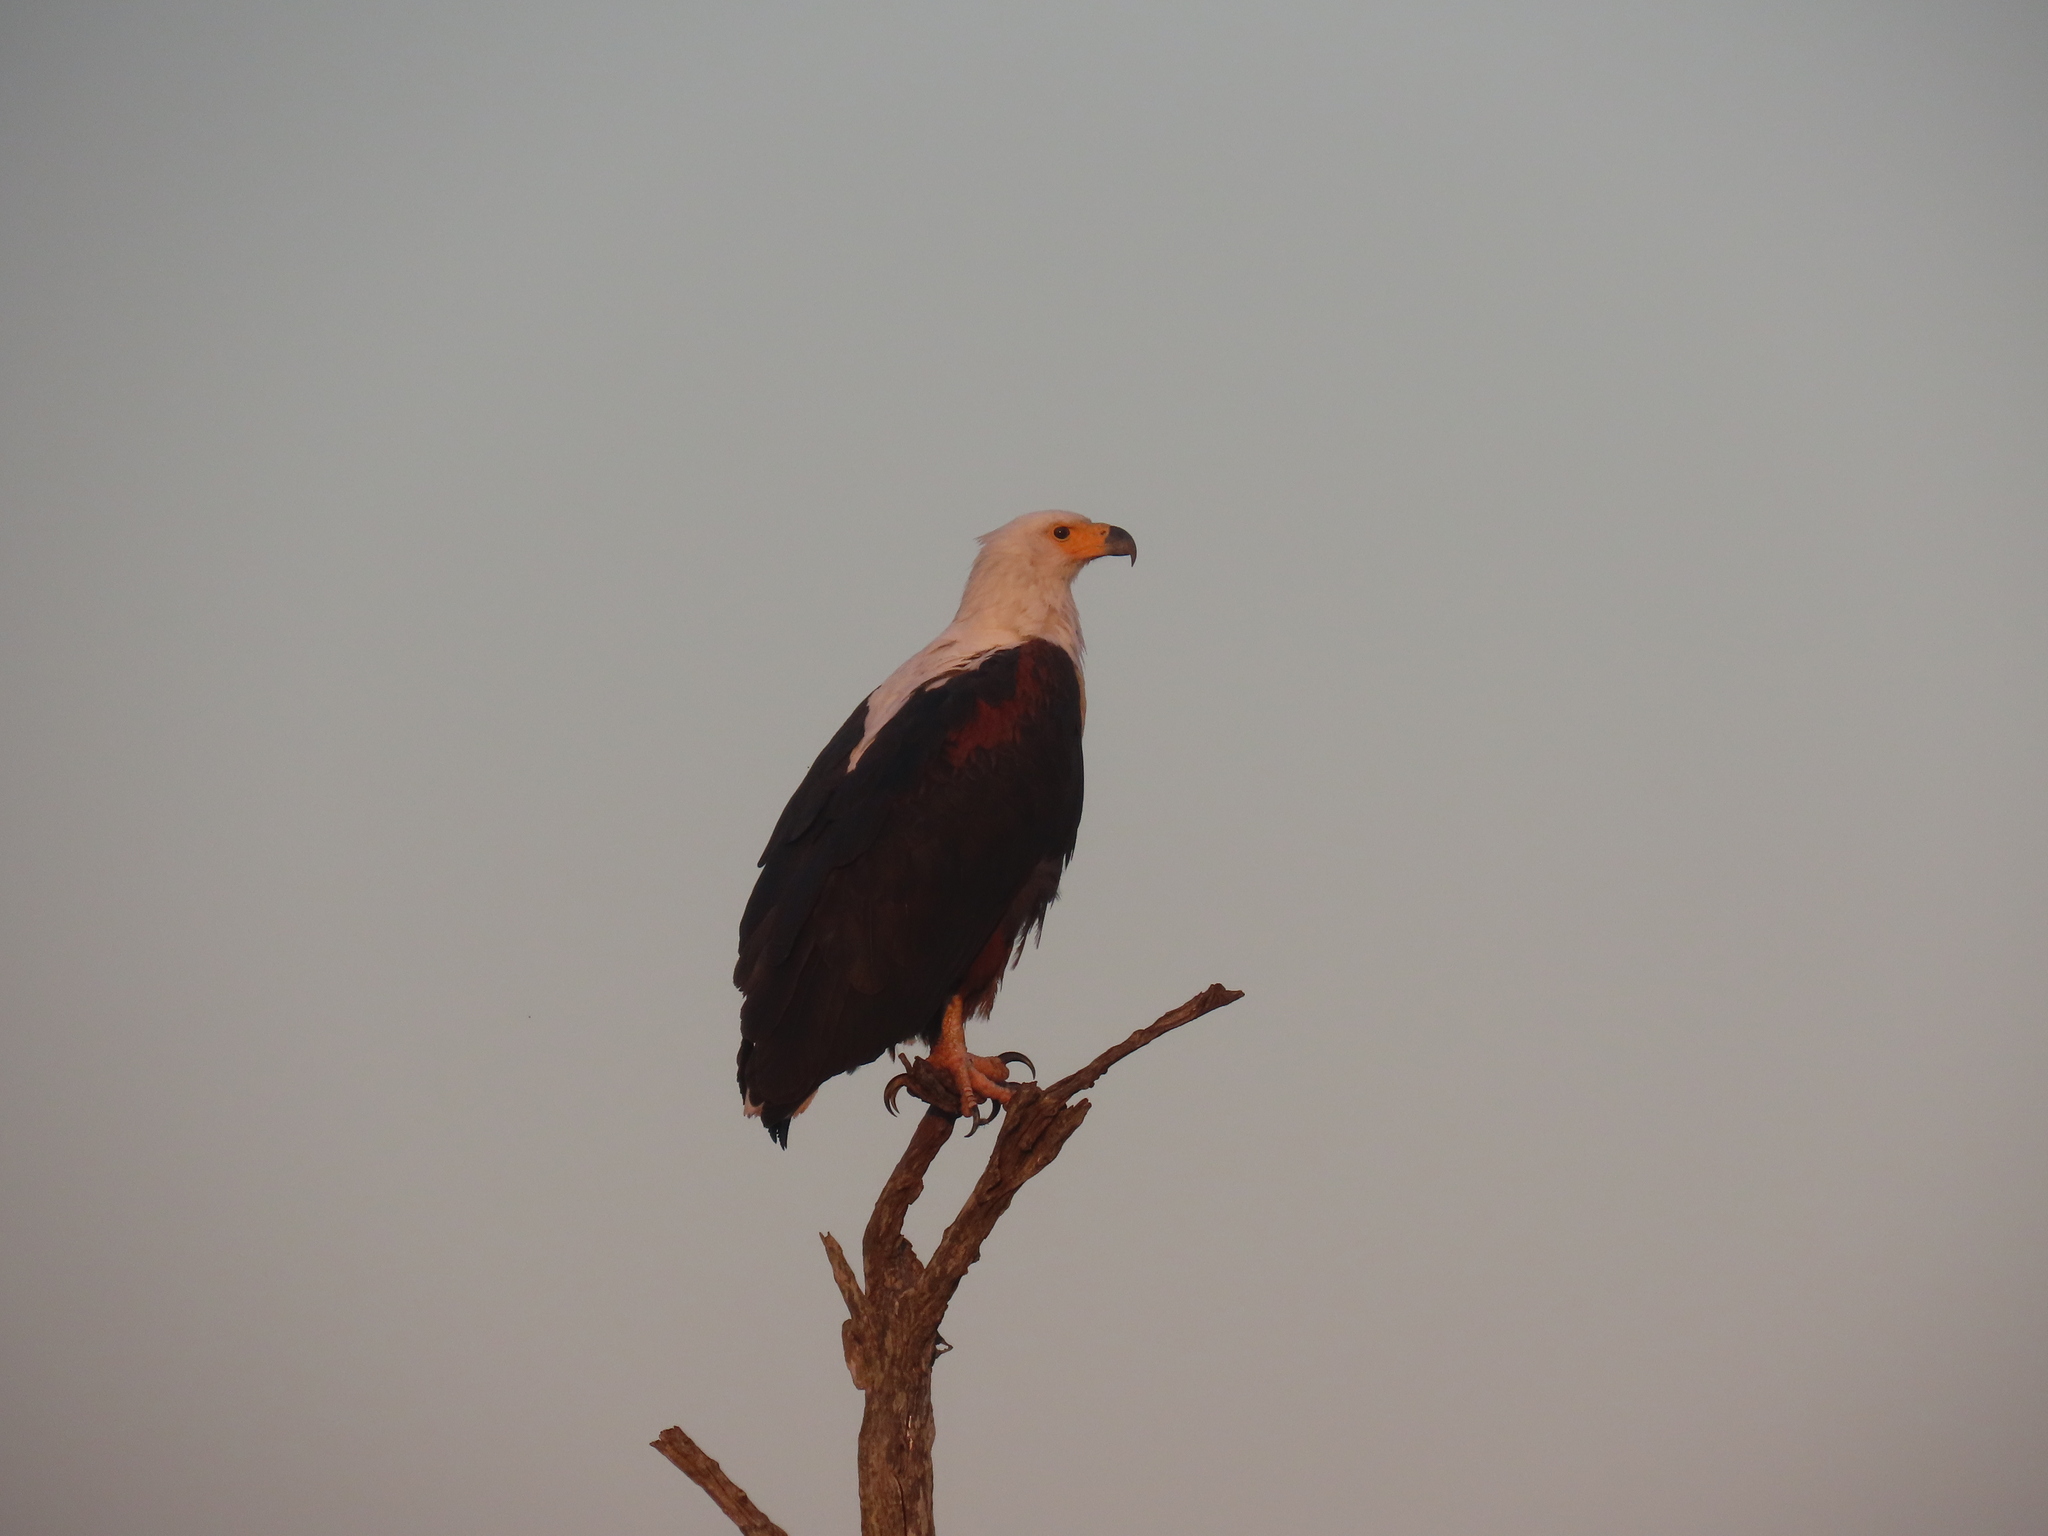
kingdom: Animalia
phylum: Chordata
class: Aves
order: Accipitriformes
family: Accipitridae
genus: Haliaeetus
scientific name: Haliaeetus vocifer
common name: African fish eagle
